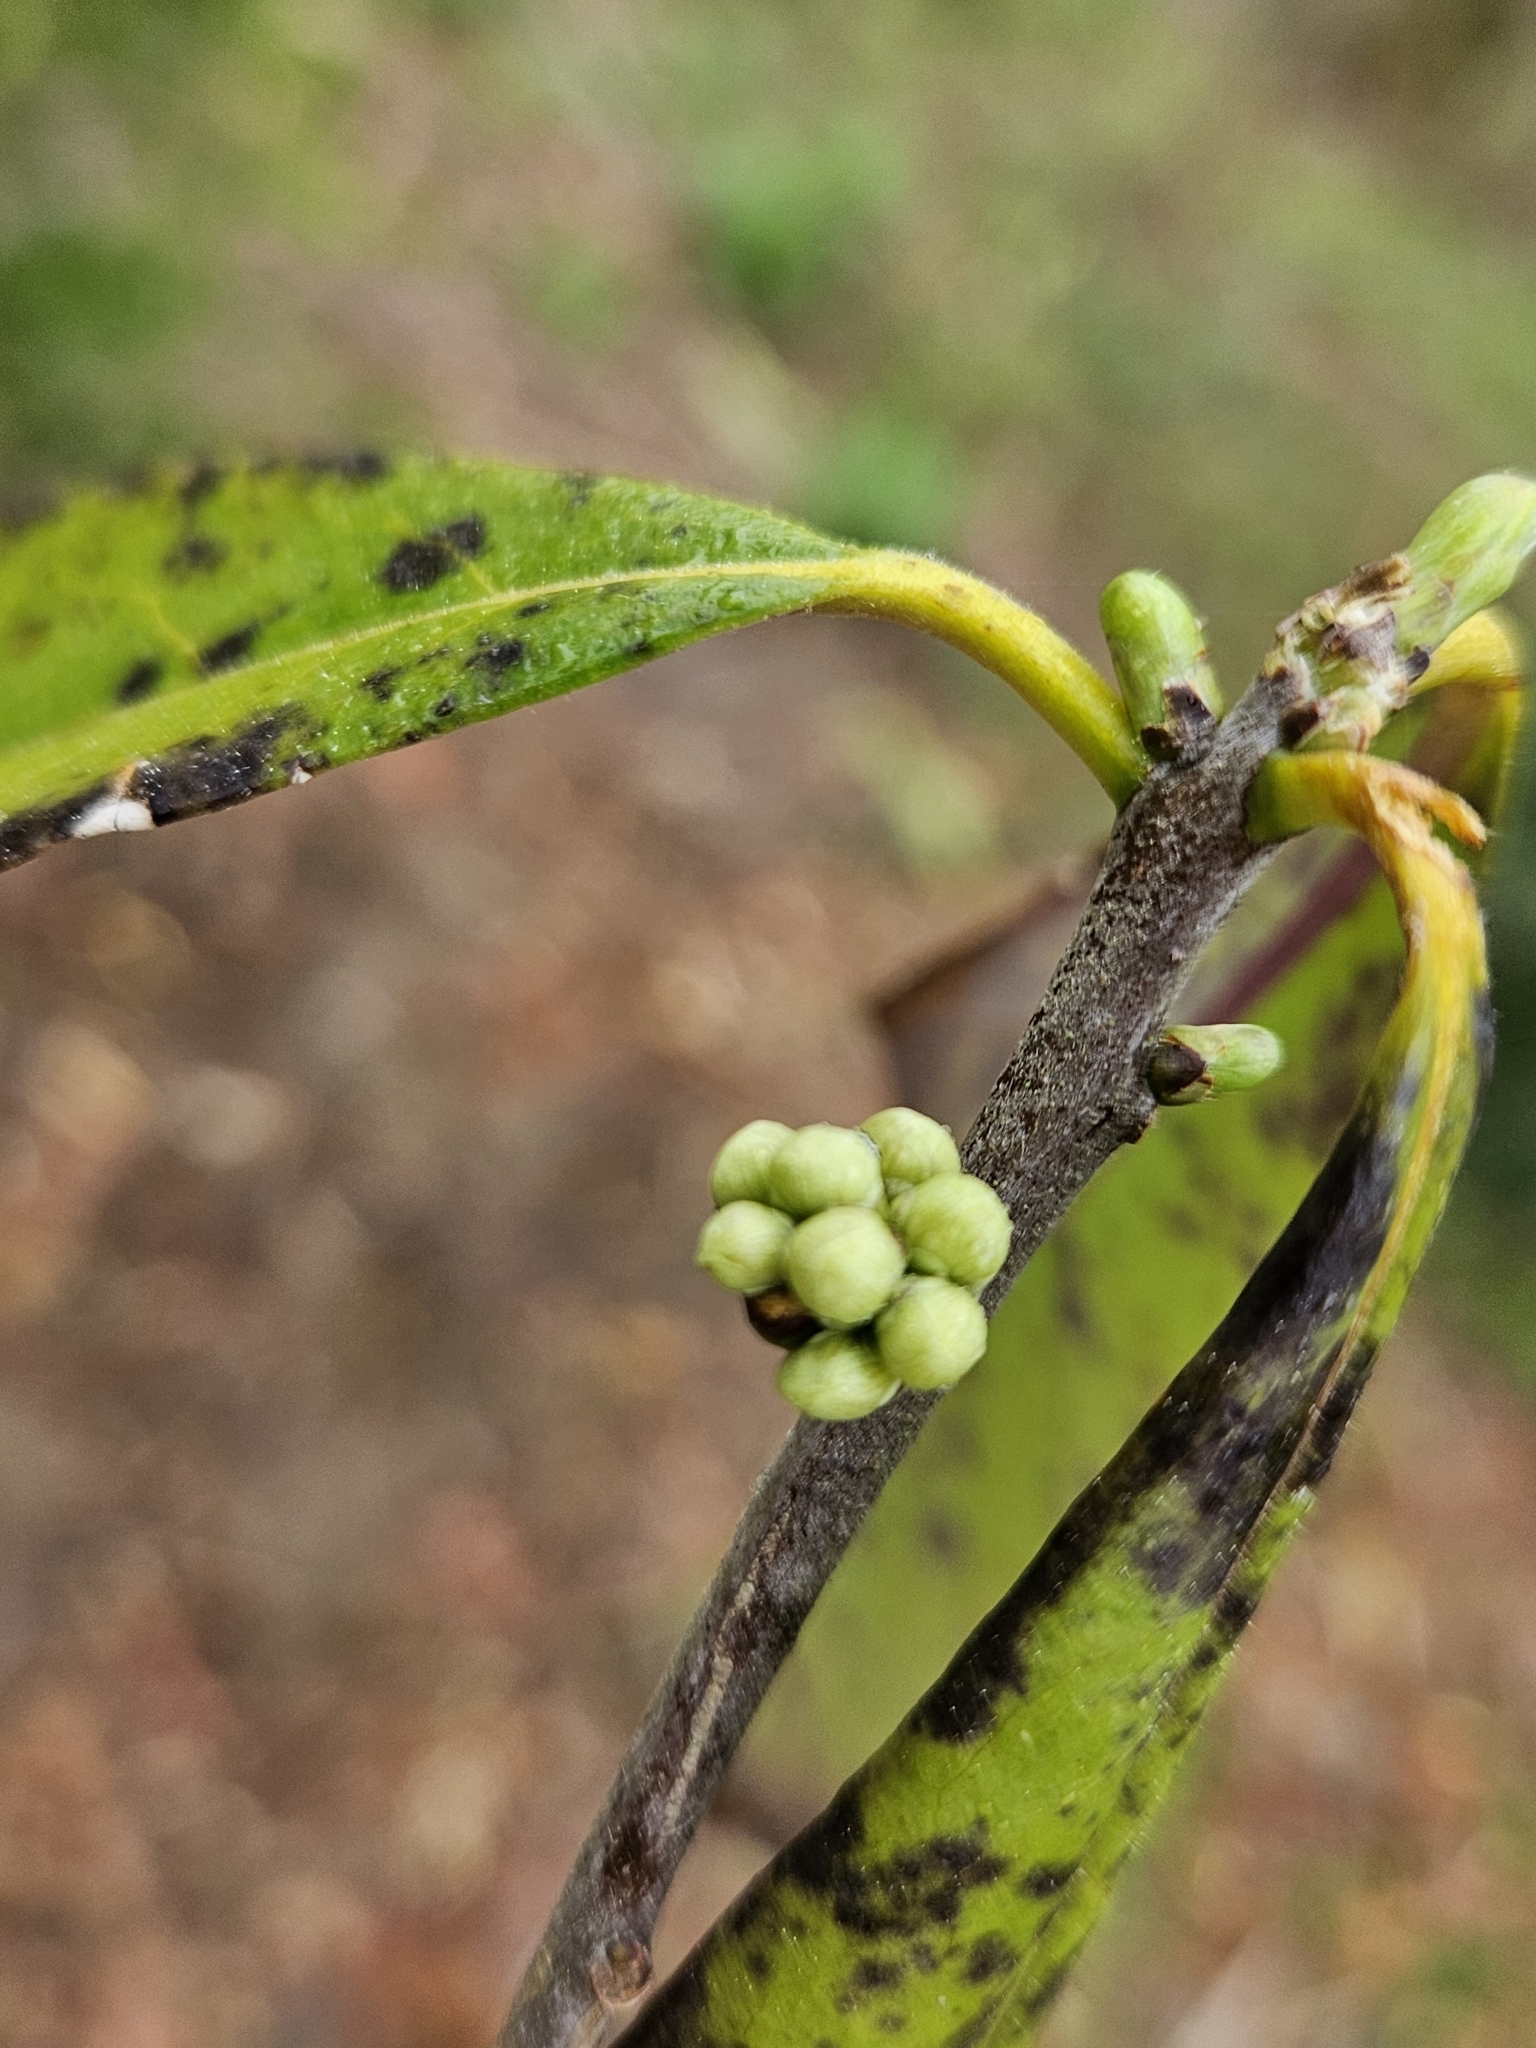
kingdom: Plantae
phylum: Tracheophyta
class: Magnoliopsida
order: Ericales
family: Symplocaceae
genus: Symplocos
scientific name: Symplocos tinctoria
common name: Horse-sugar
